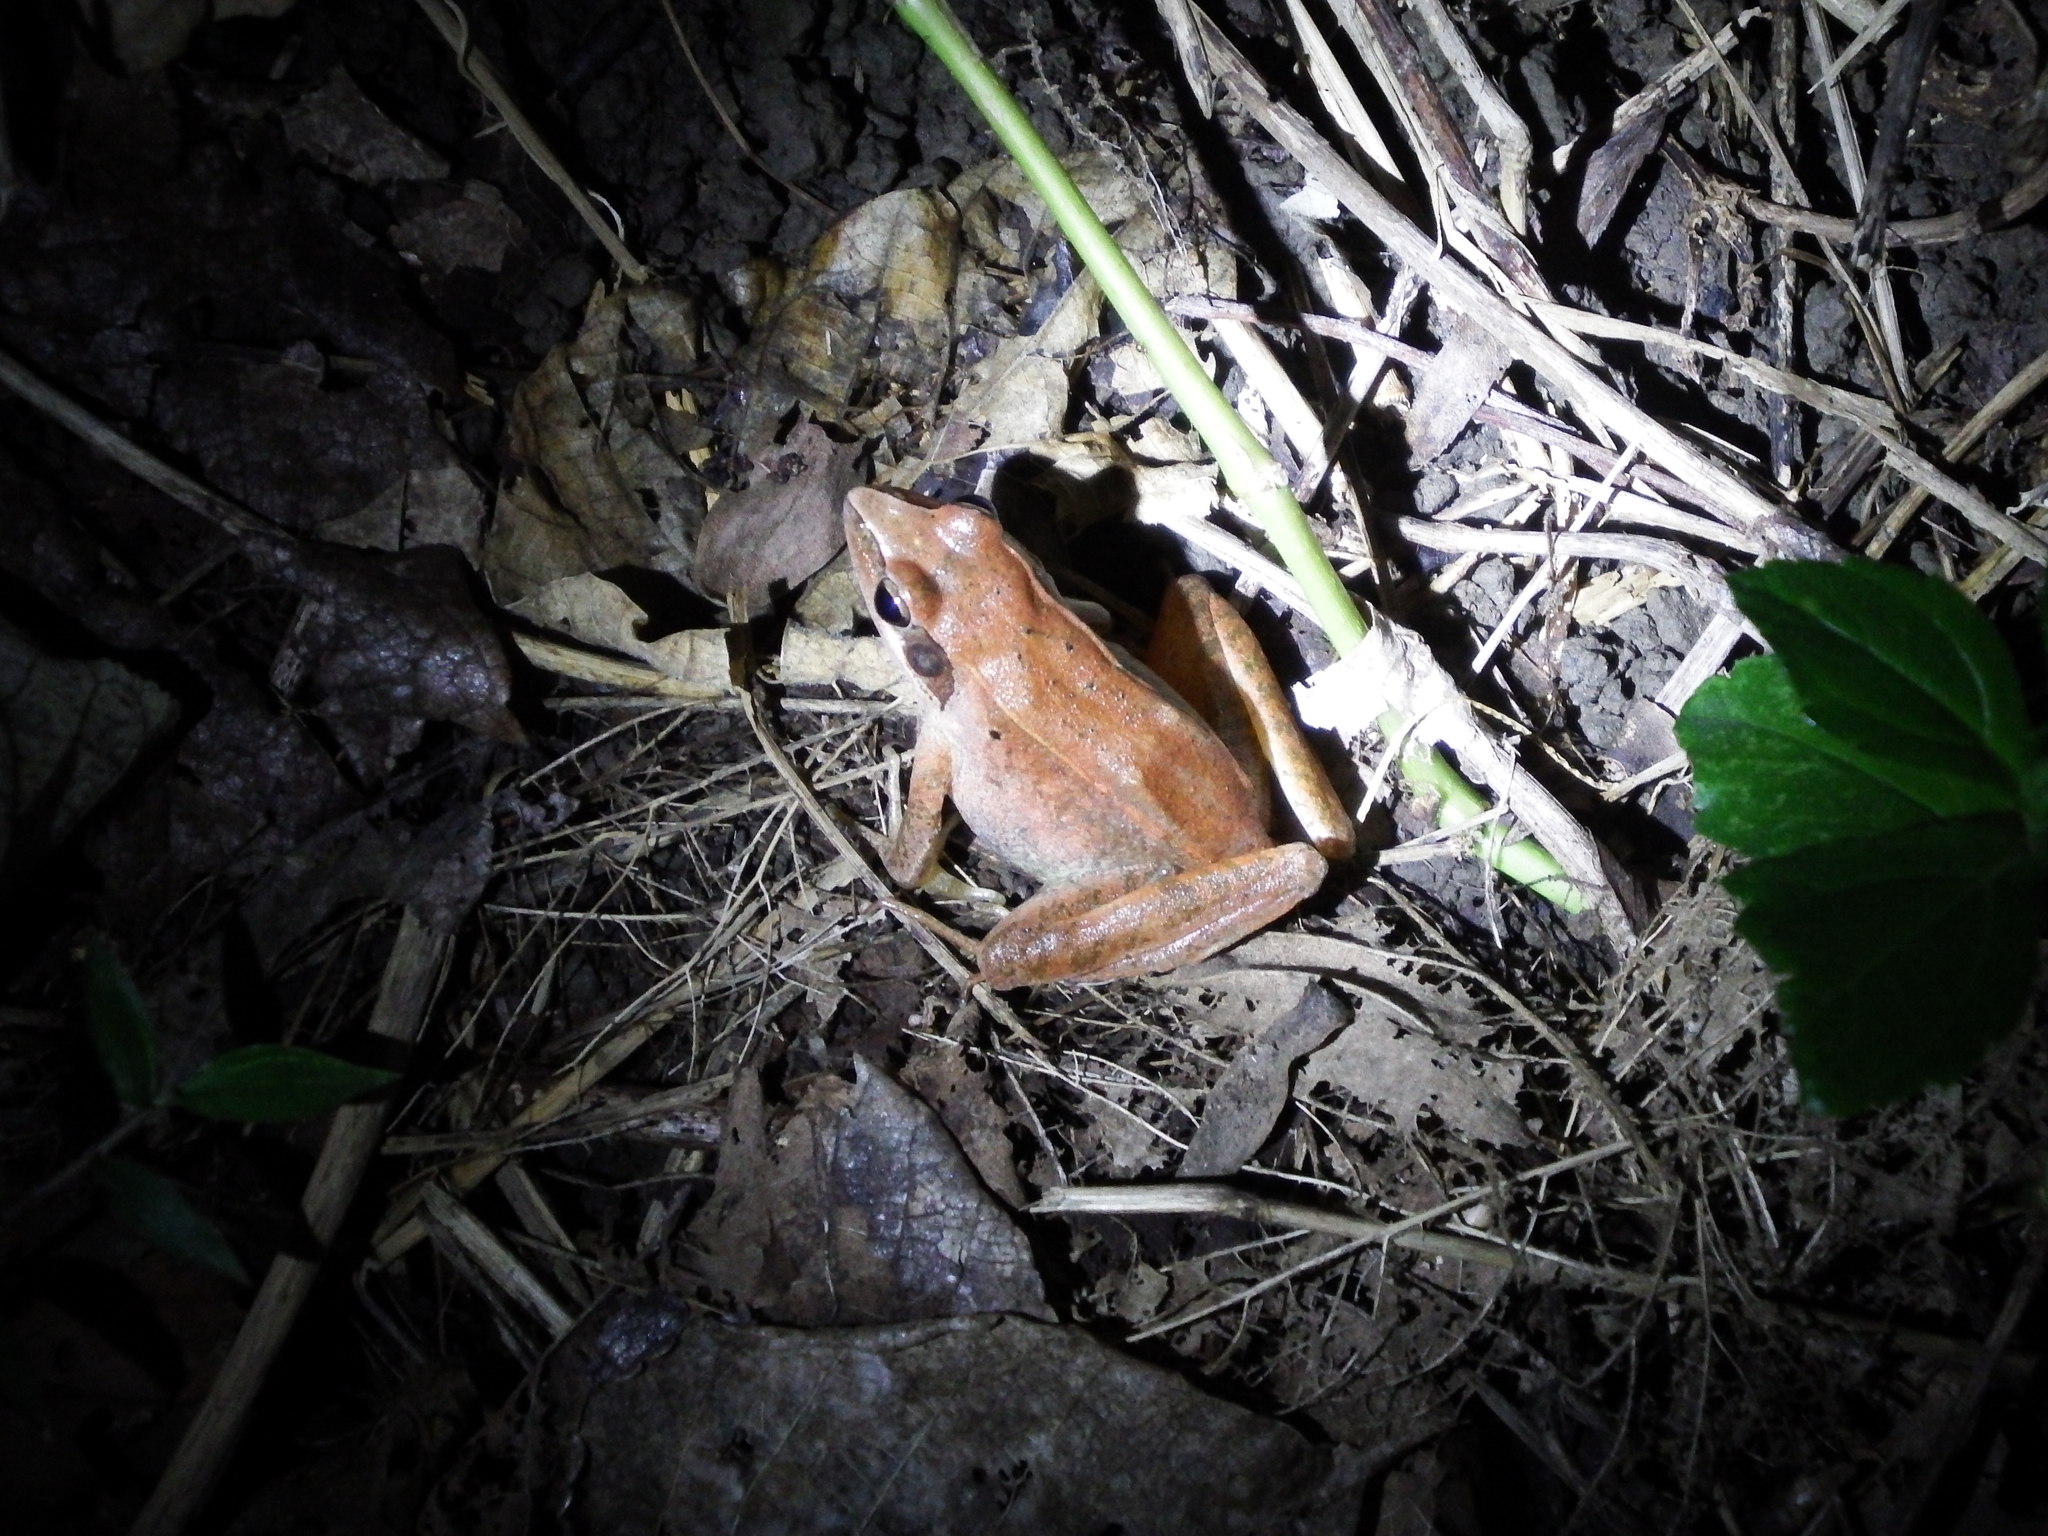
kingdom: Animalia
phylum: Chordata
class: Amphibia
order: Anura
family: Ranidae
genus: Rana
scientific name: Rana longicrus
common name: Long-legged brown frog
